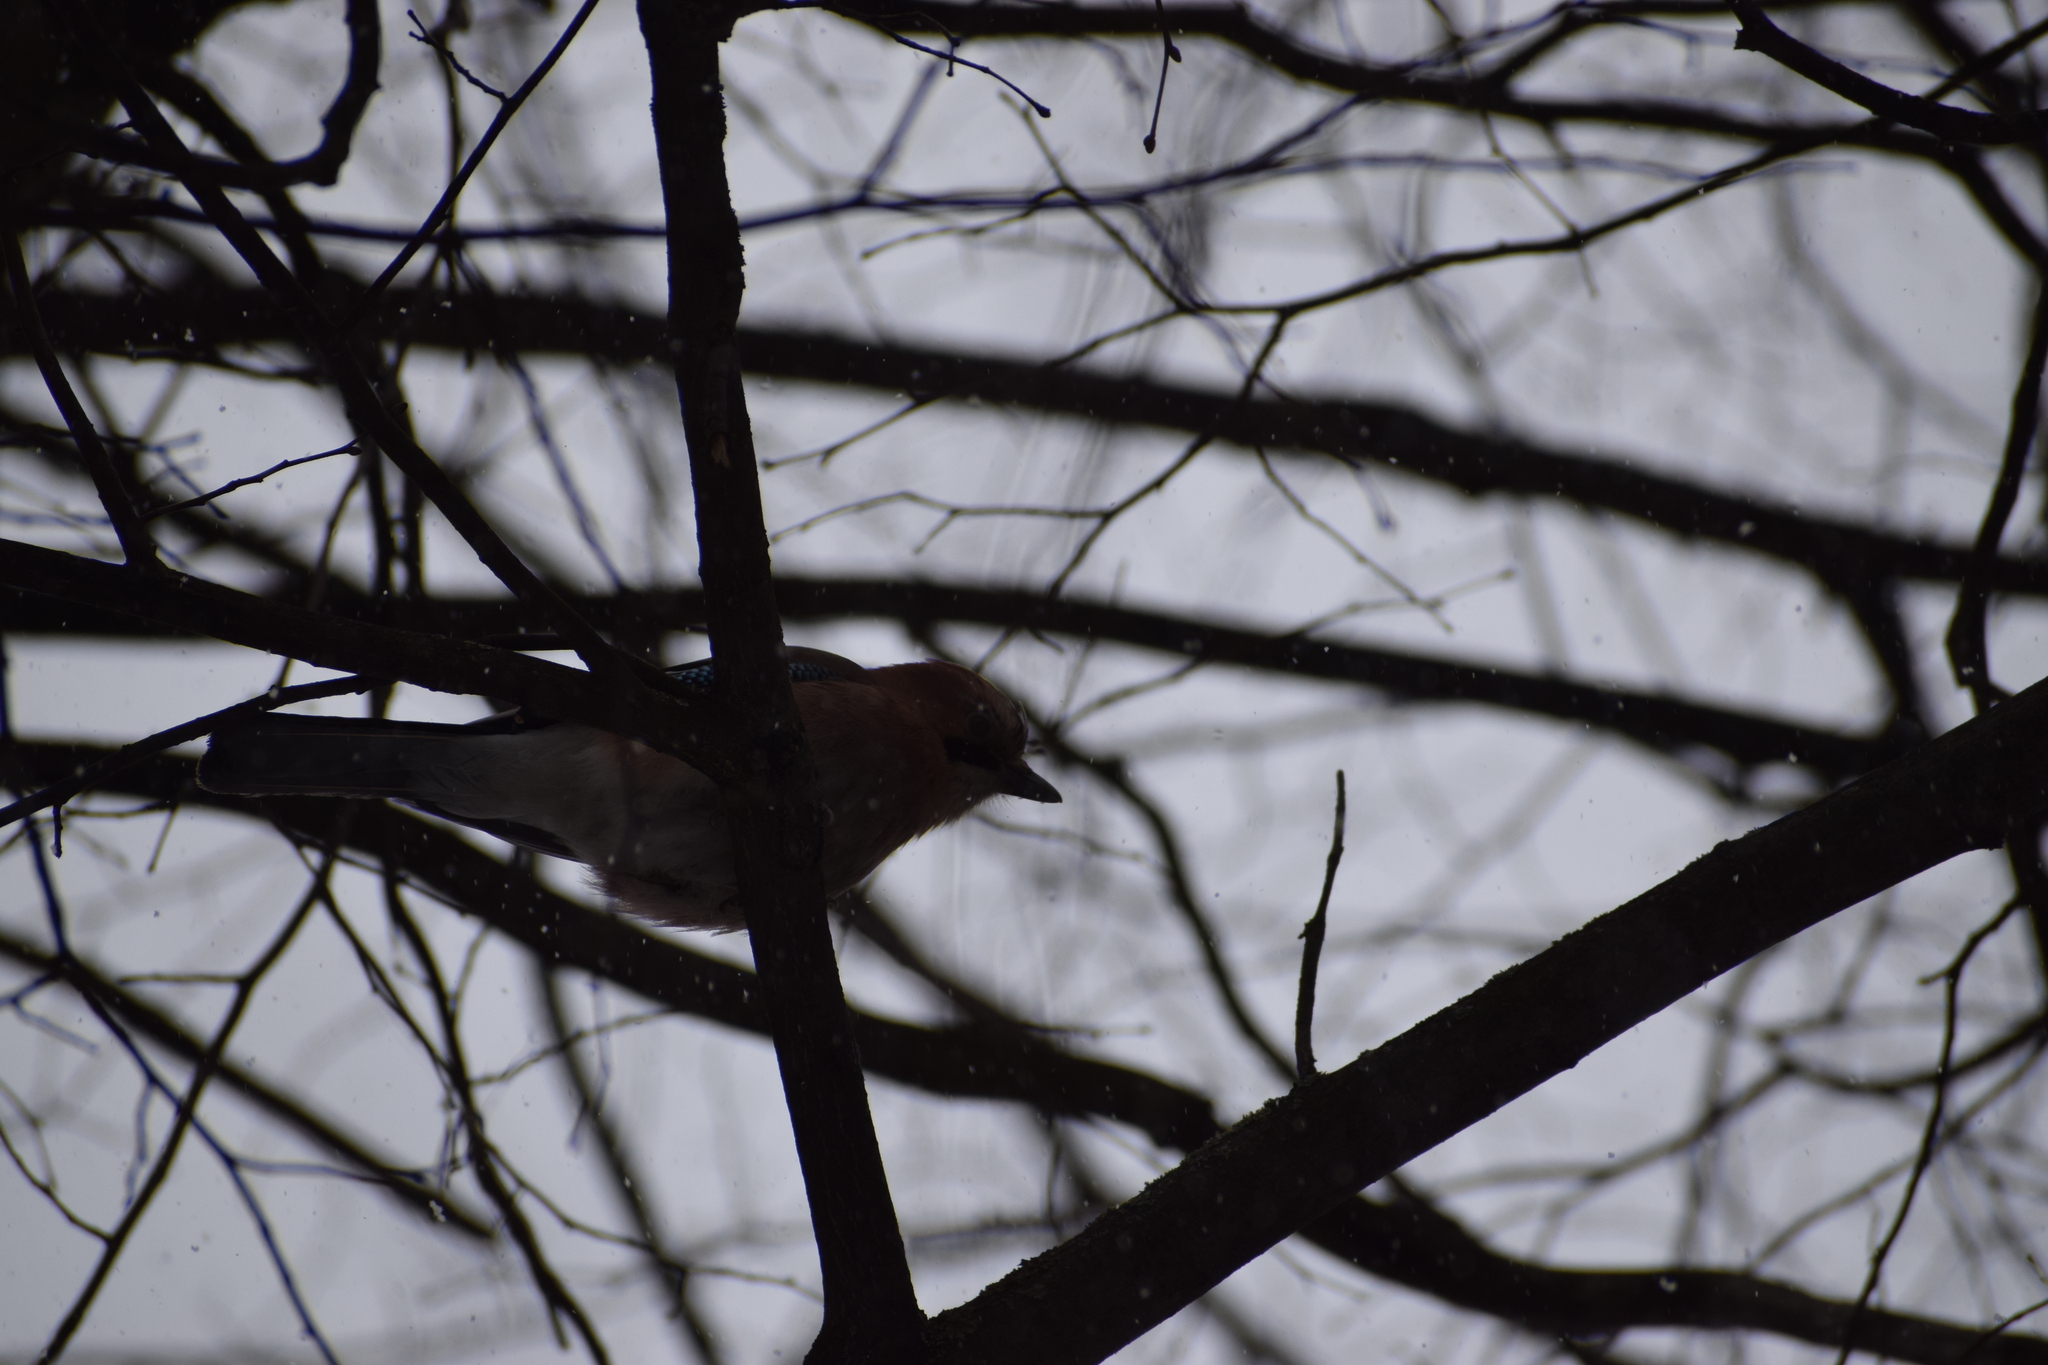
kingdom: Animalia
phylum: Chordata
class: Aves
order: Passeriformes
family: Corvidae
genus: Garrulus
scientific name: Garrulus glandarius
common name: Eurasian jay
